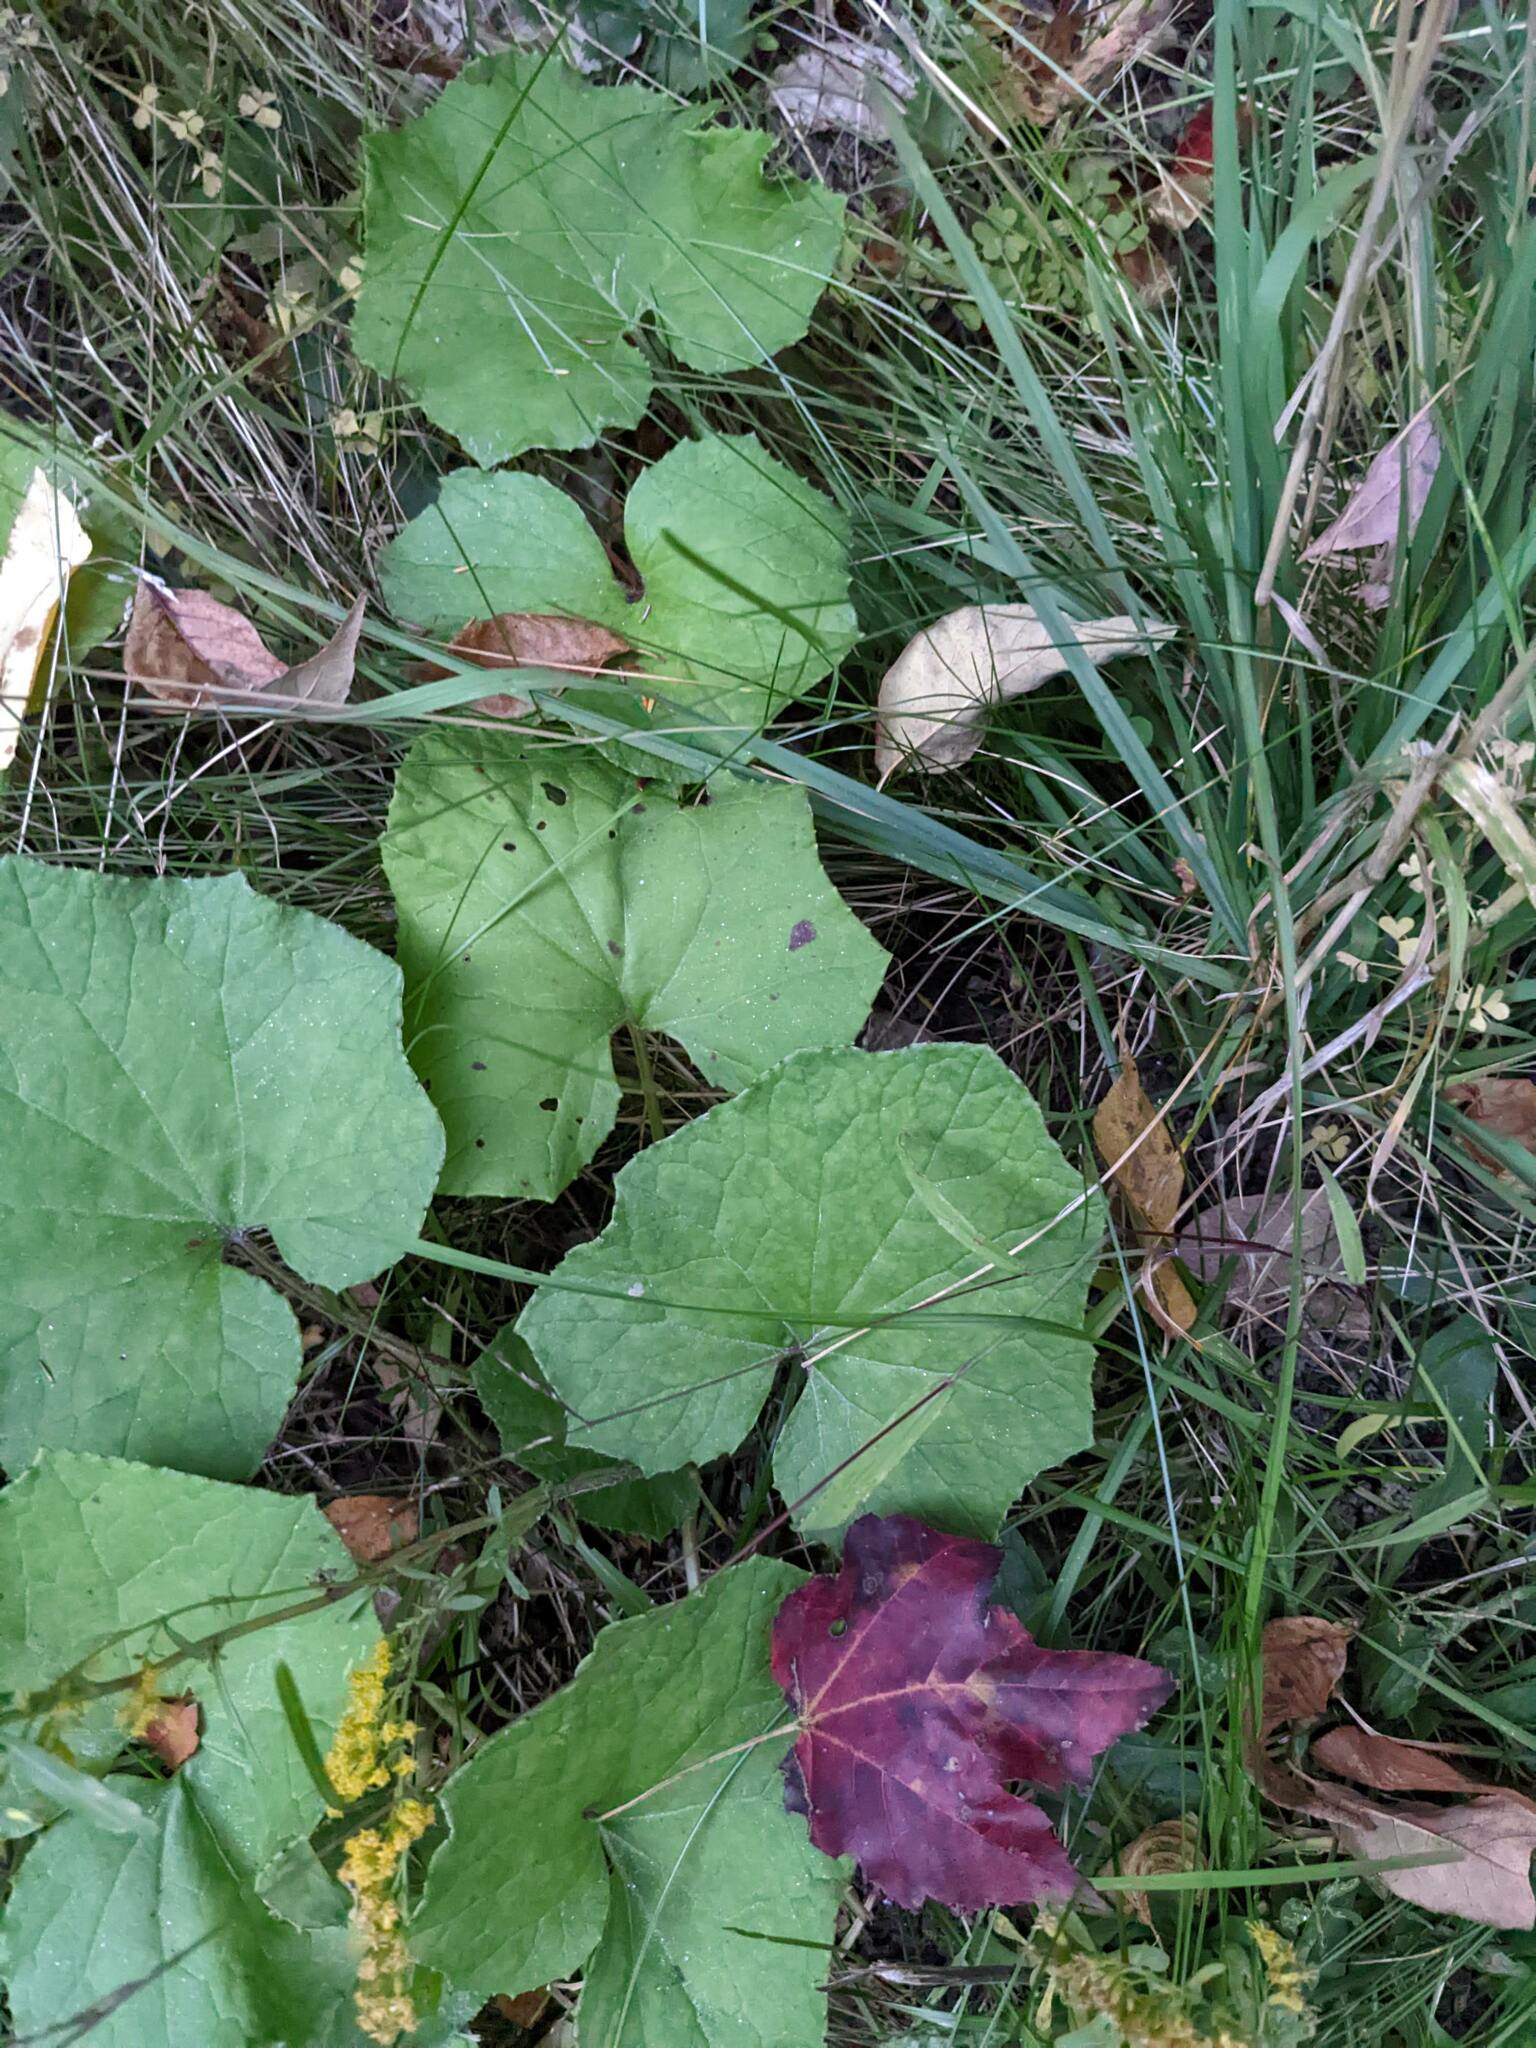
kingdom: Plantae
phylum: Tracheophyta
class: Magnoliopsida
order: Asterales
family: Asteraceae
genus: Tussilago
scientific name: Tussilago farfara
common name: Coltsfoot
